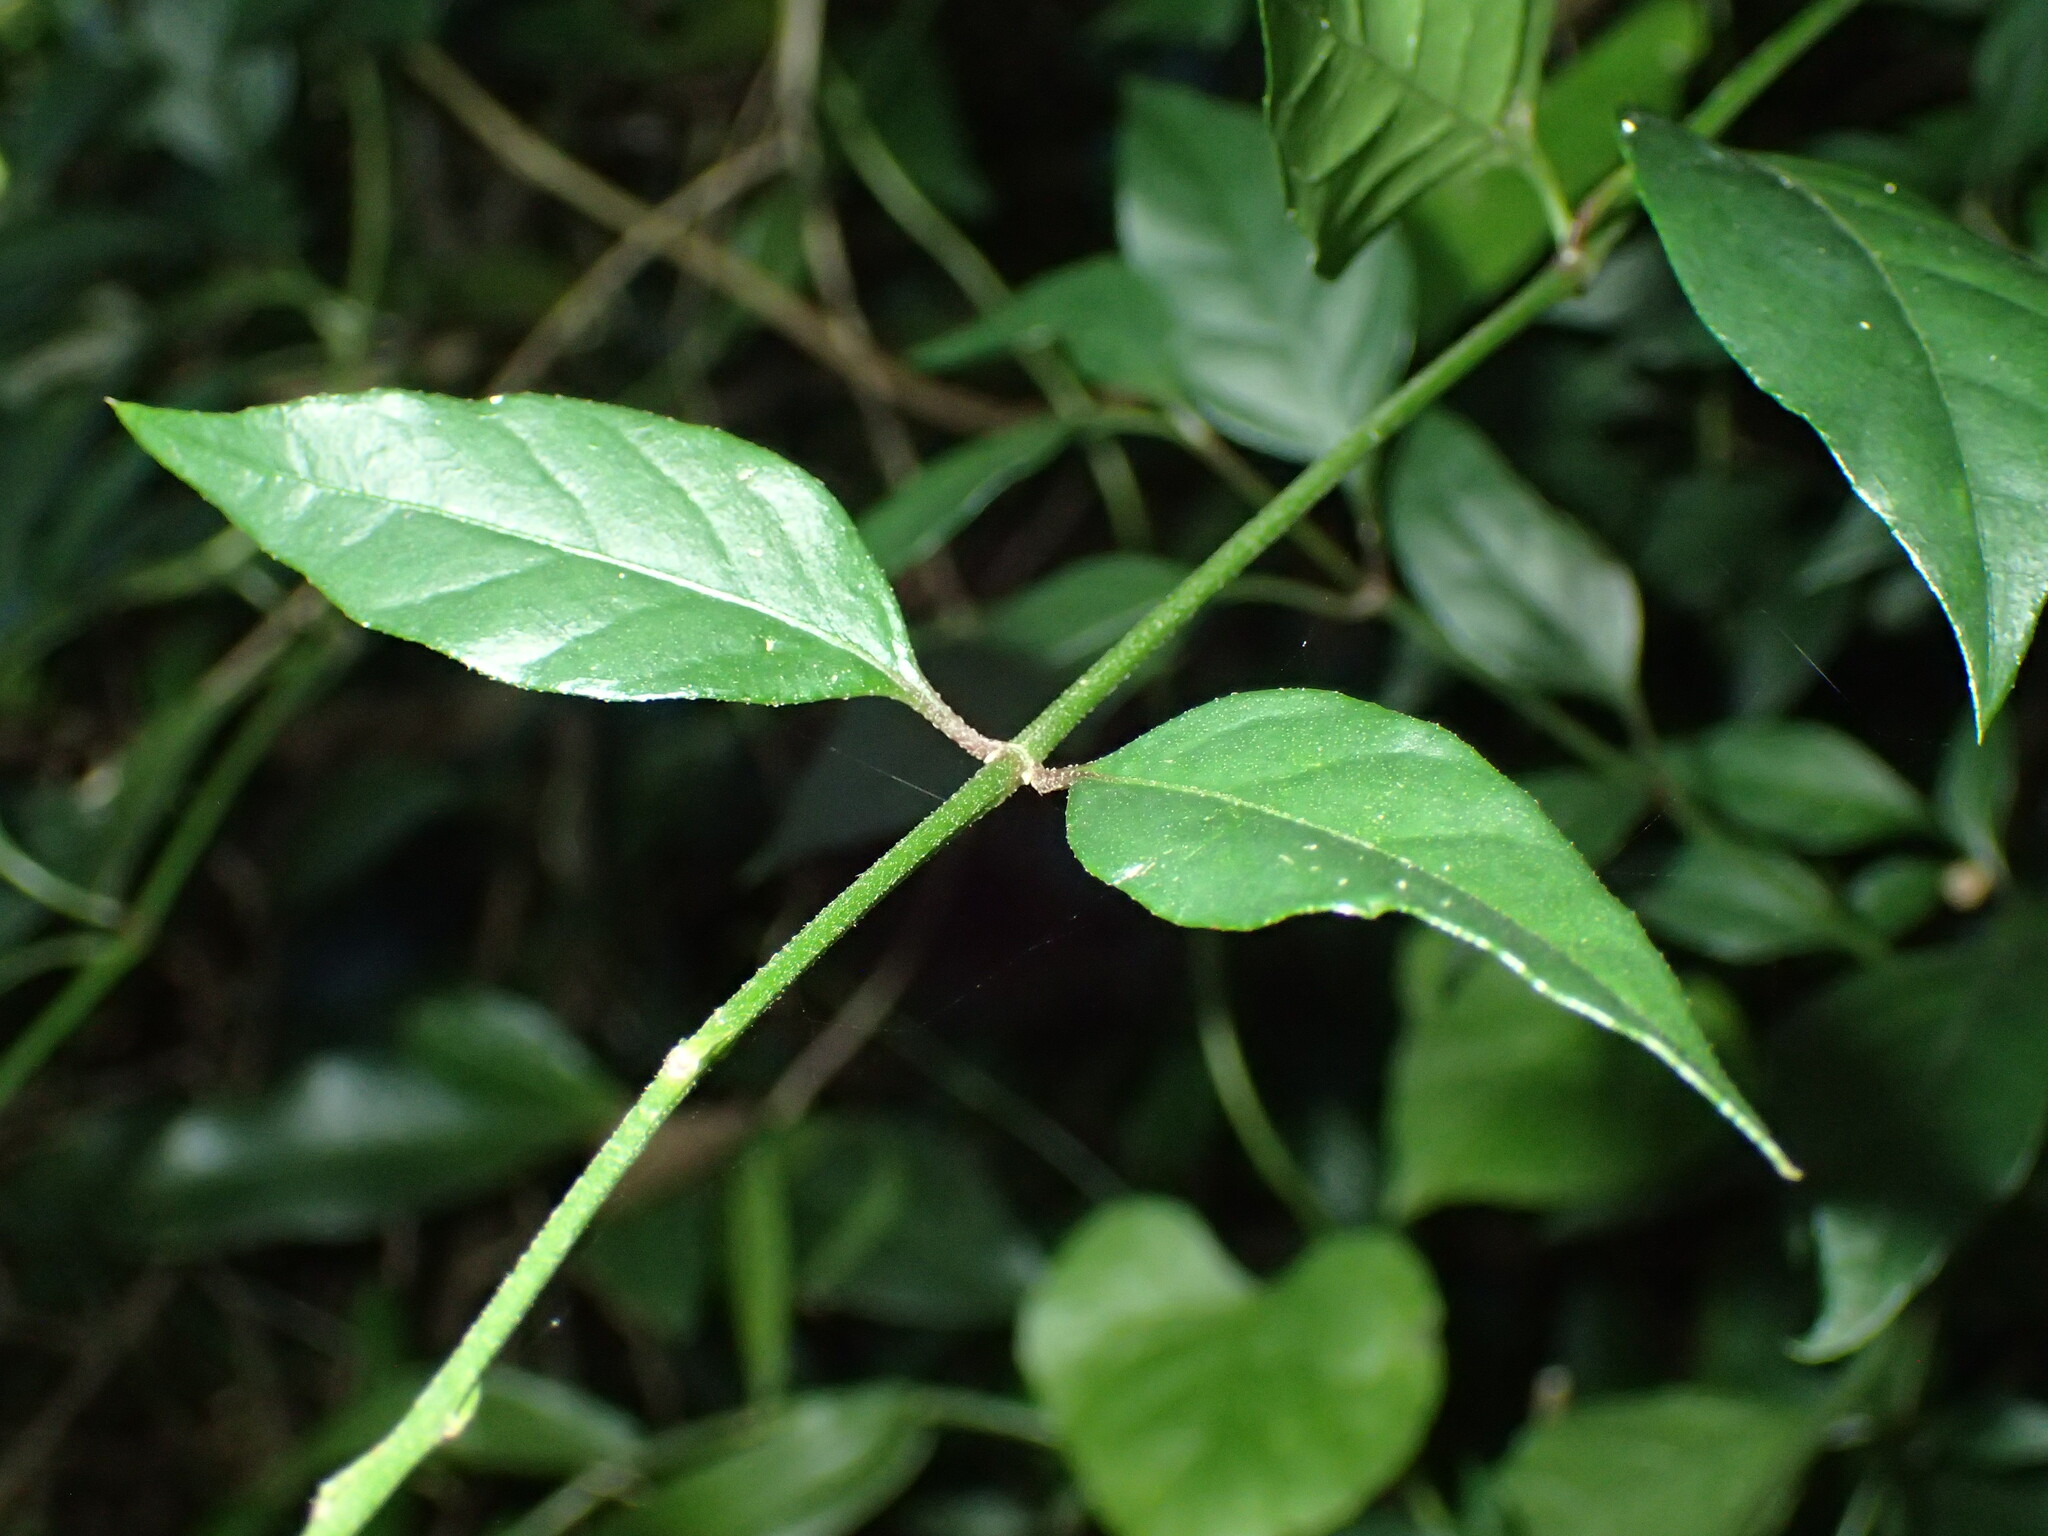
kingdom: Plantae
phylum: Tracheophyta
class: Magnoliopsida
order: Caryophyllales
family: Amaranthaceae
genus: Pupalia
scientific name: Pupalia lappacea
